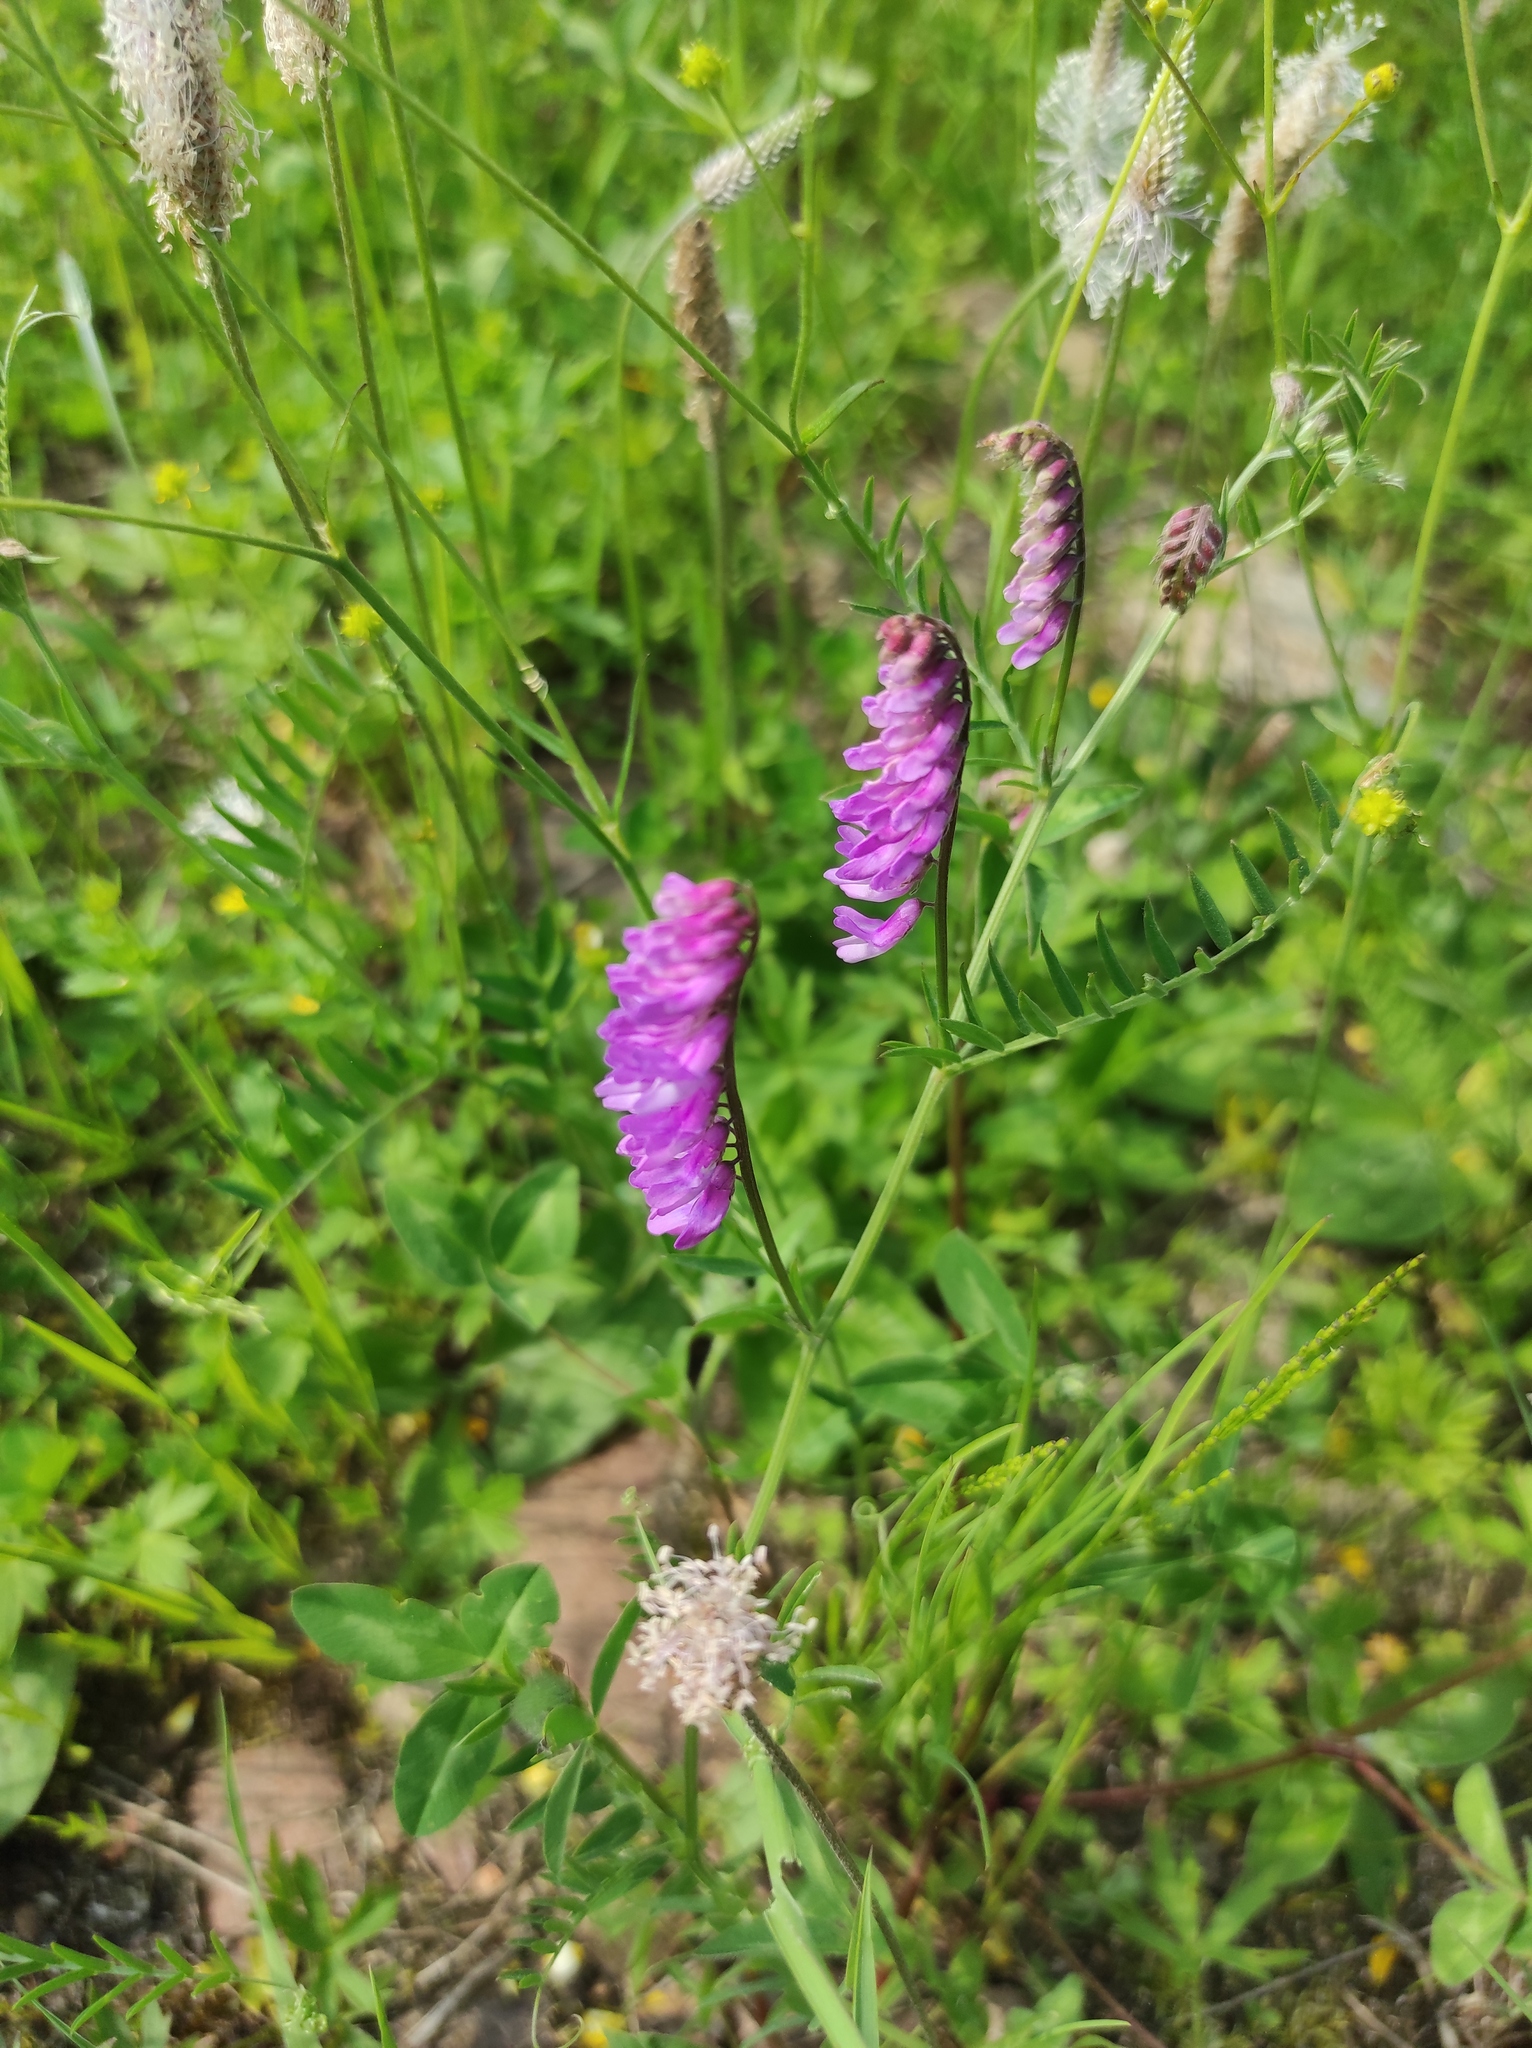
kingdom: Plantae
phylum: Tracheophyta
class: Magnoliopsida
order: Fabales
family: Fabaceae
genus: Vicia
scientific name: Vicia cracca
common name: Bird vetch
